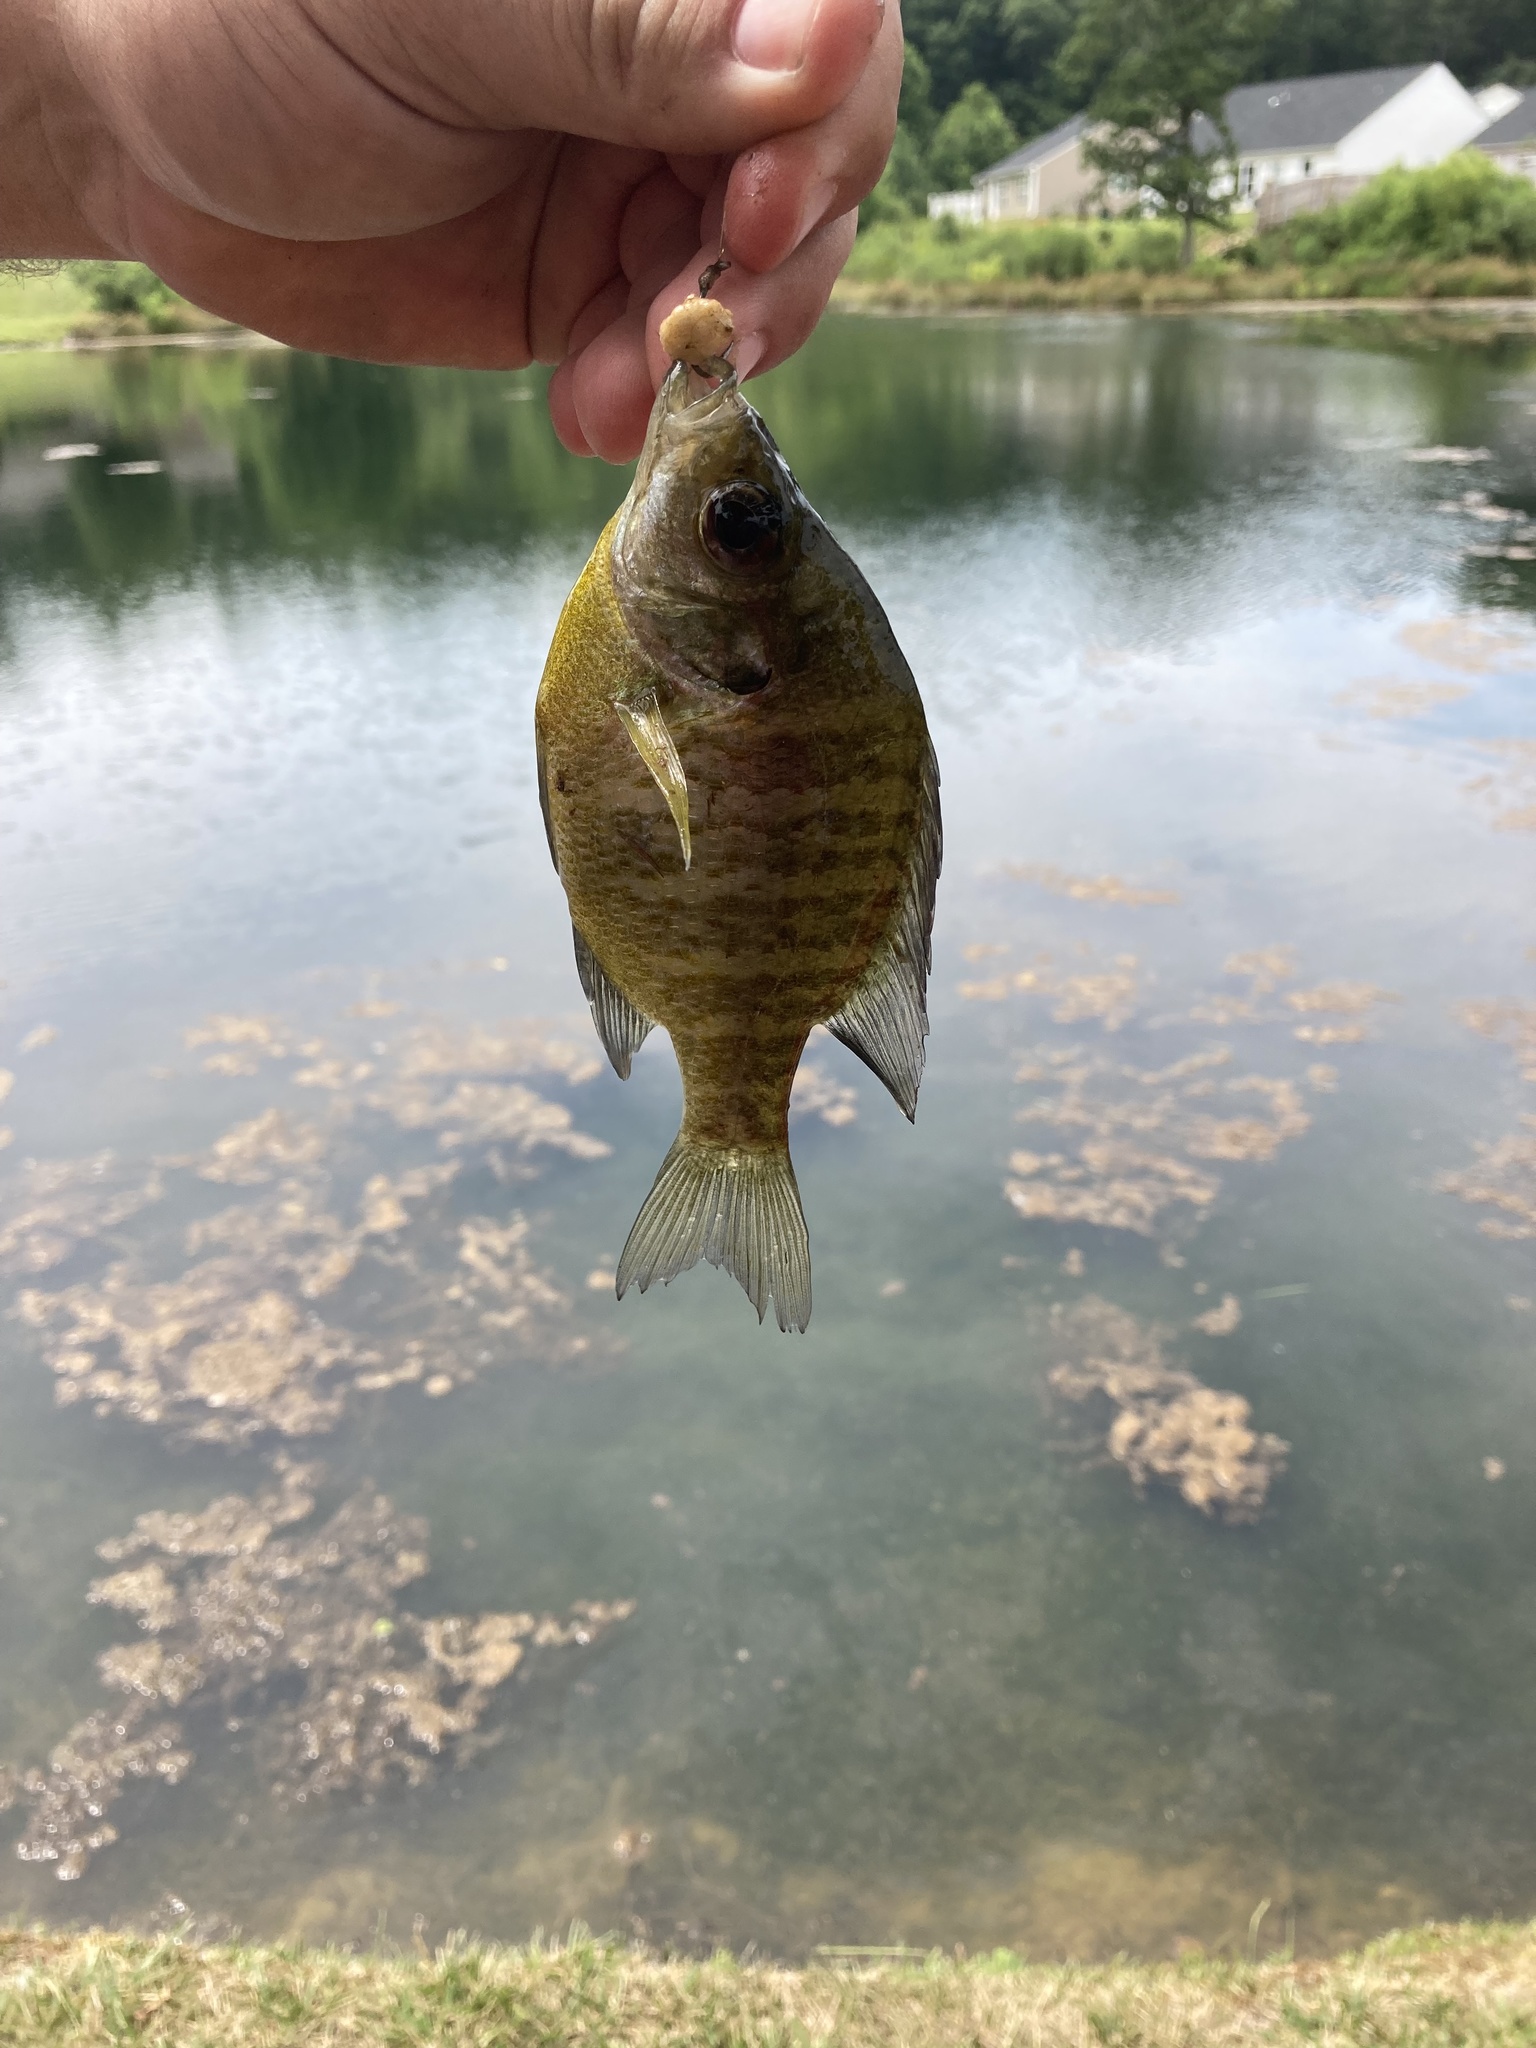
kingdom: Animalia
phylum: Chordata
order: Perciformes
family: Centrarchidae
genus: Lepomis
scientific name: Lepomis macrochirus
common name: Bluegill
